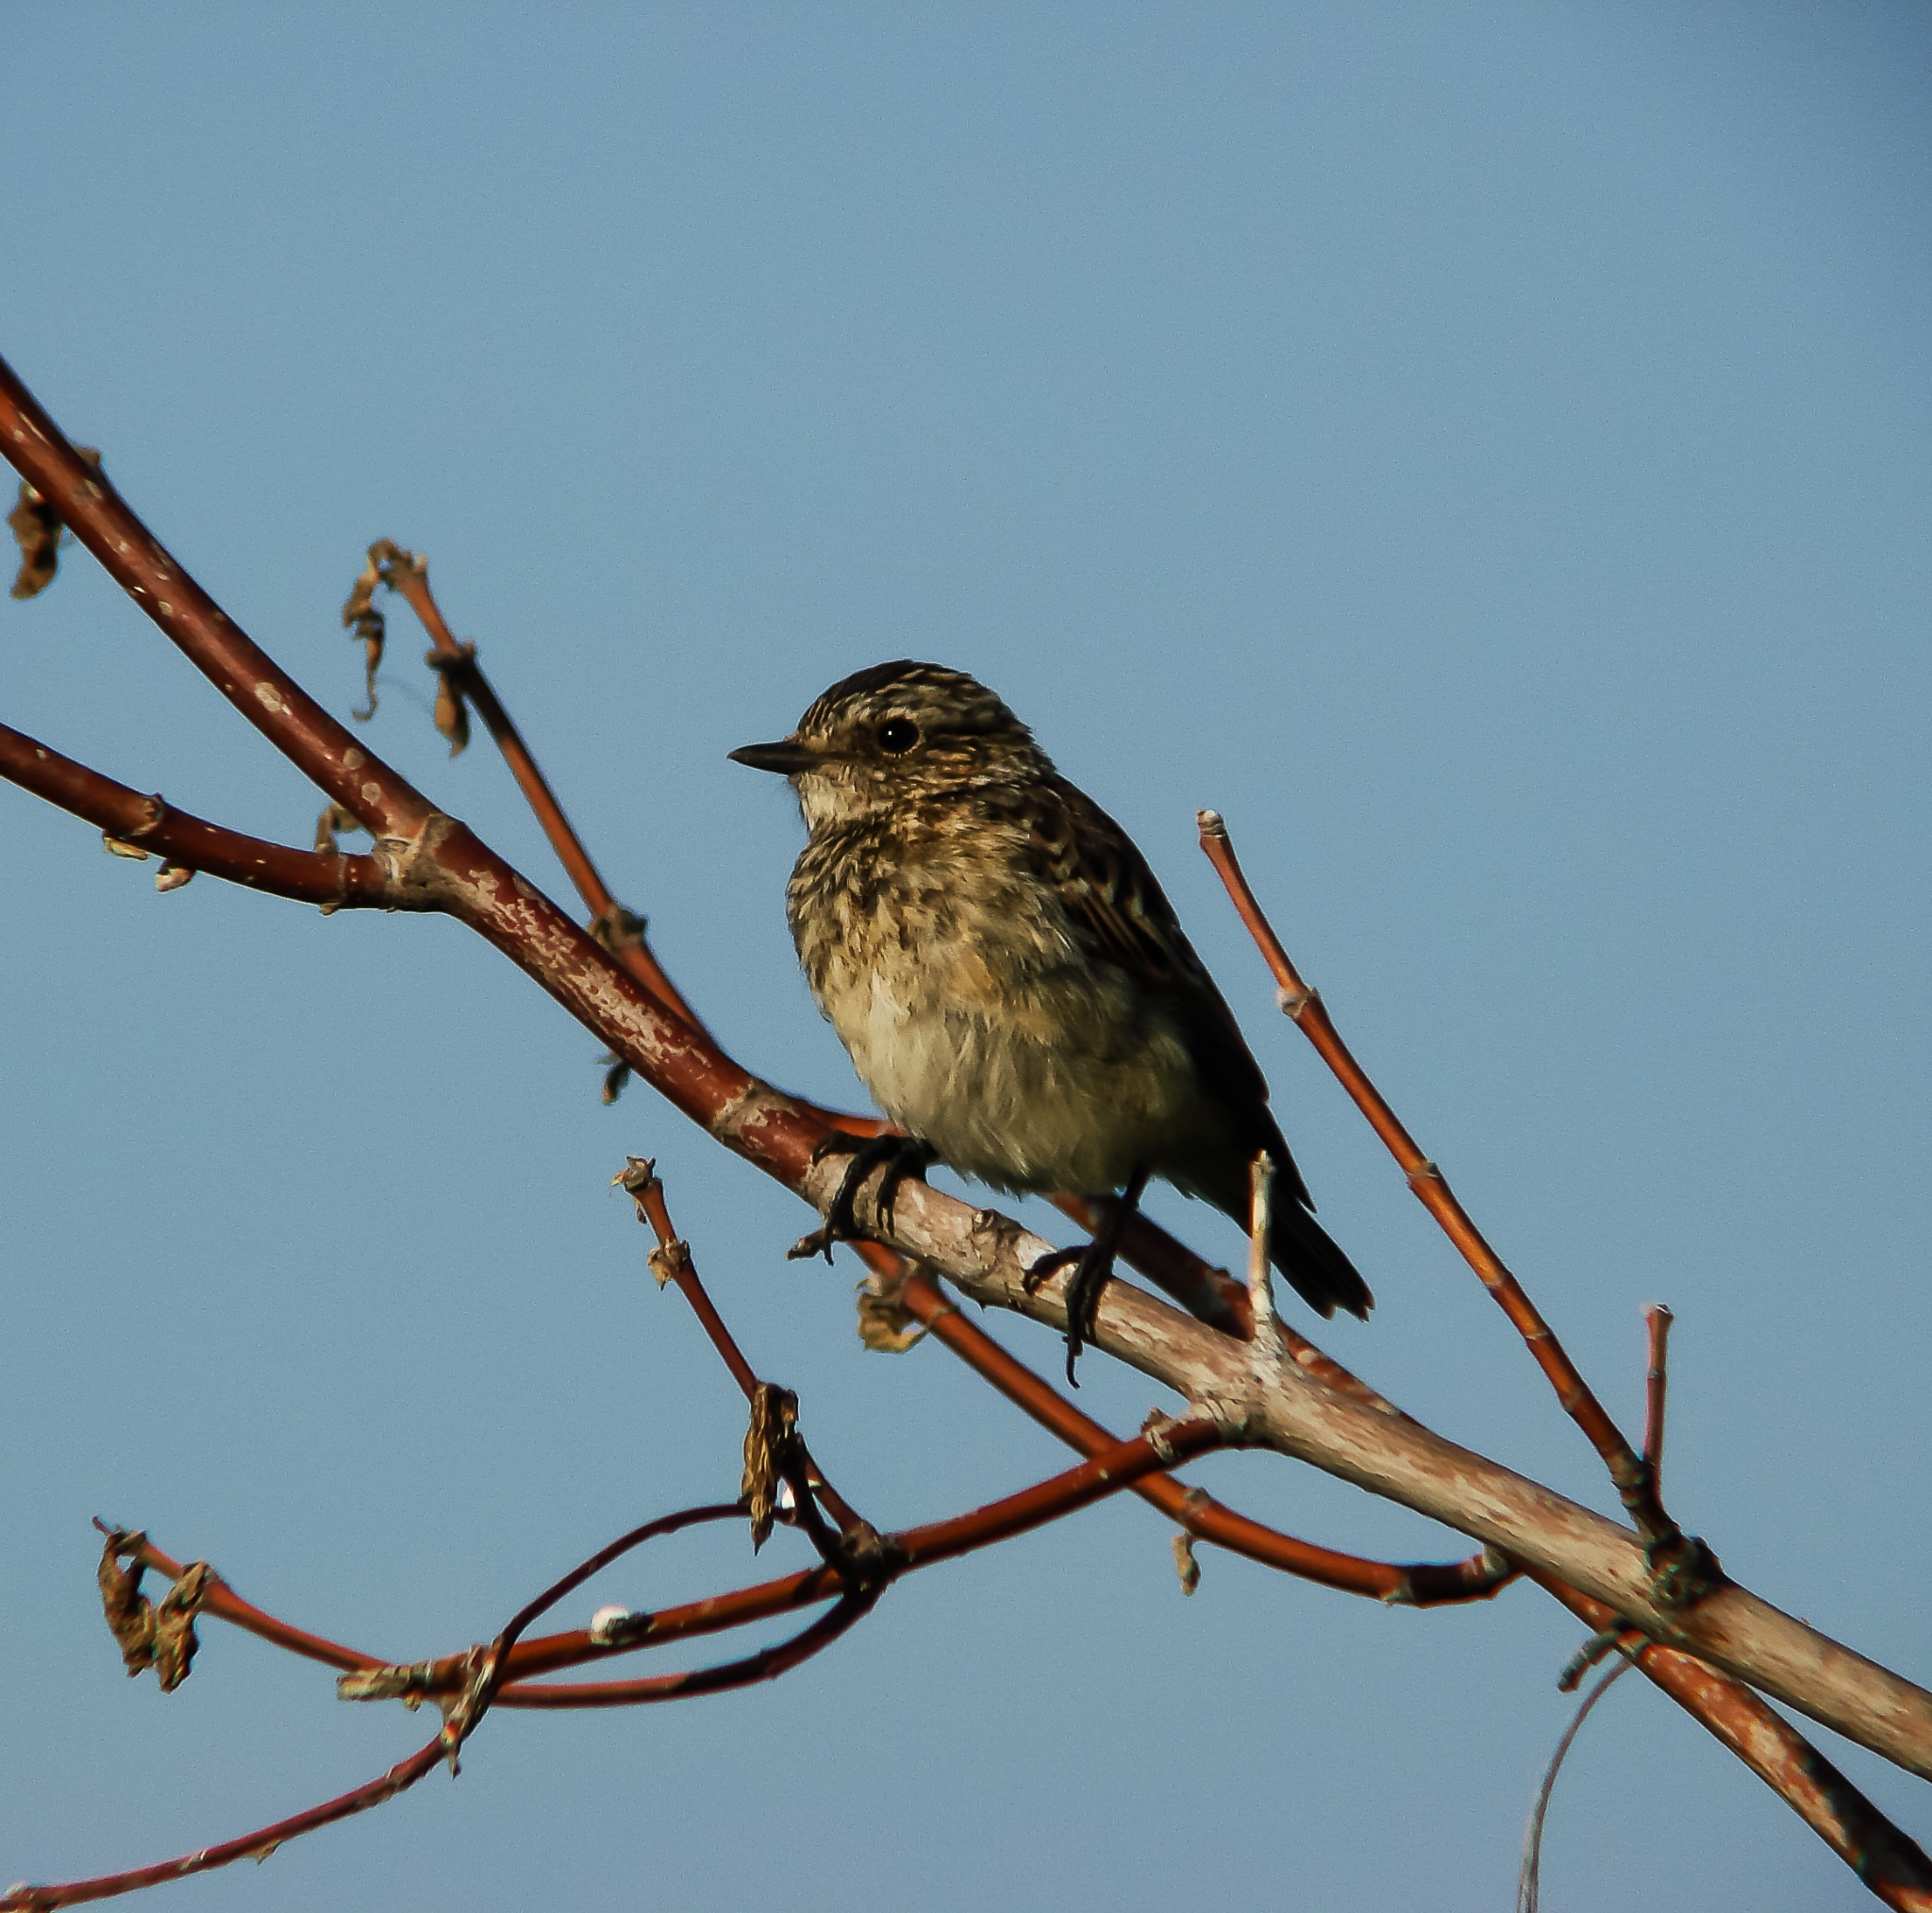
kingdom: Animalia
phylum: Chordata
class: Aves
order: Passeriformes
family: Muscicapidae
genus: Saxicola
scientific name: Saxicola maurus
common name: Siberian stonechat
